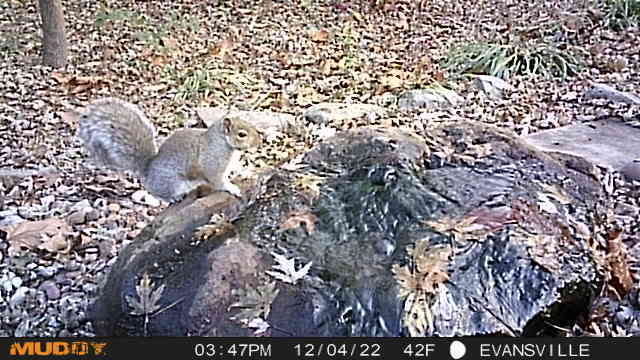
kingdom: Animalia
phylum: Chordata
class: Mammalia
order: Rodentia
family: Sciuridae
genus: Sciurus
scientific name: Sciurus carolinensis
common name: Eastern gray squirrel
